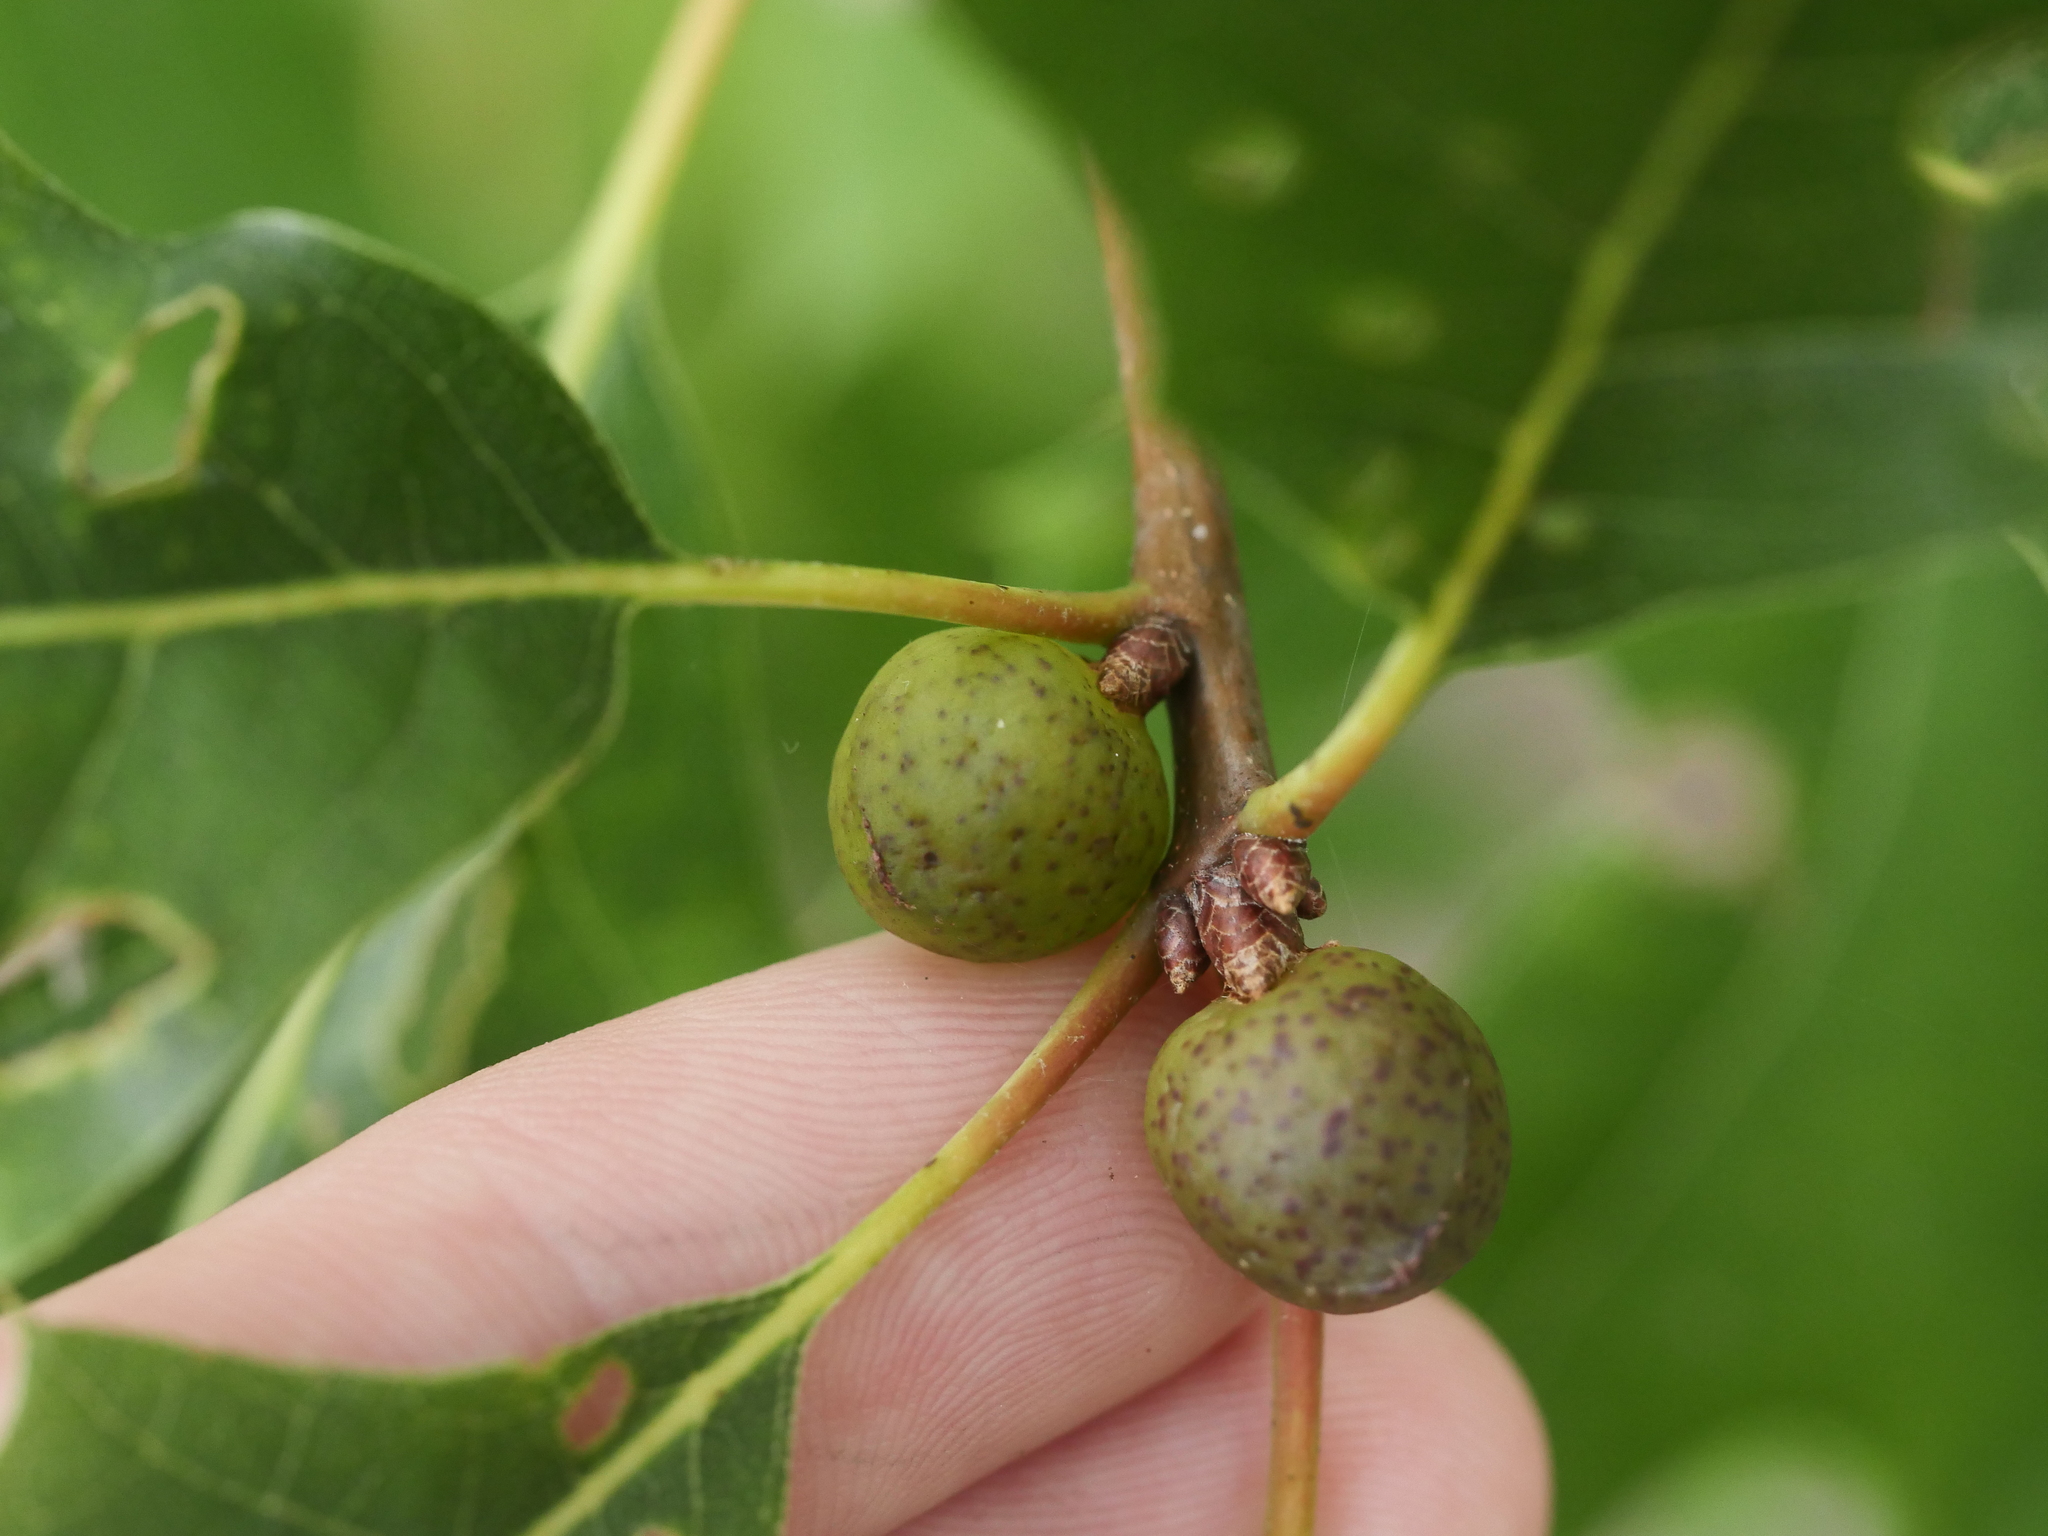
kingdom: Animalia
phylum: Arthropoda
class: Insecta
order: Hymenoptera
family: Cynipidae
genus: Amphibolips
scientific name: Amphibolips
